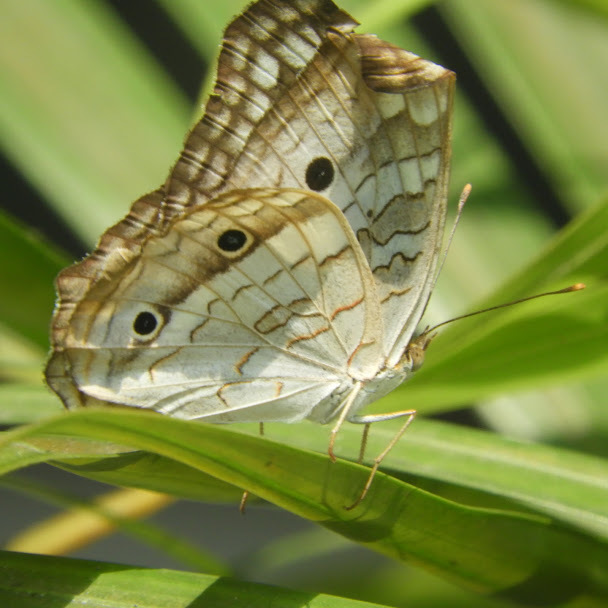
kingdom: Animalia
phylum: Arthropoda
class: Insecta
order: Lepidoptera
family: Nymphalidae
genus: Anartia
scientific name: Anartia jatrophae
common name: White peacock
